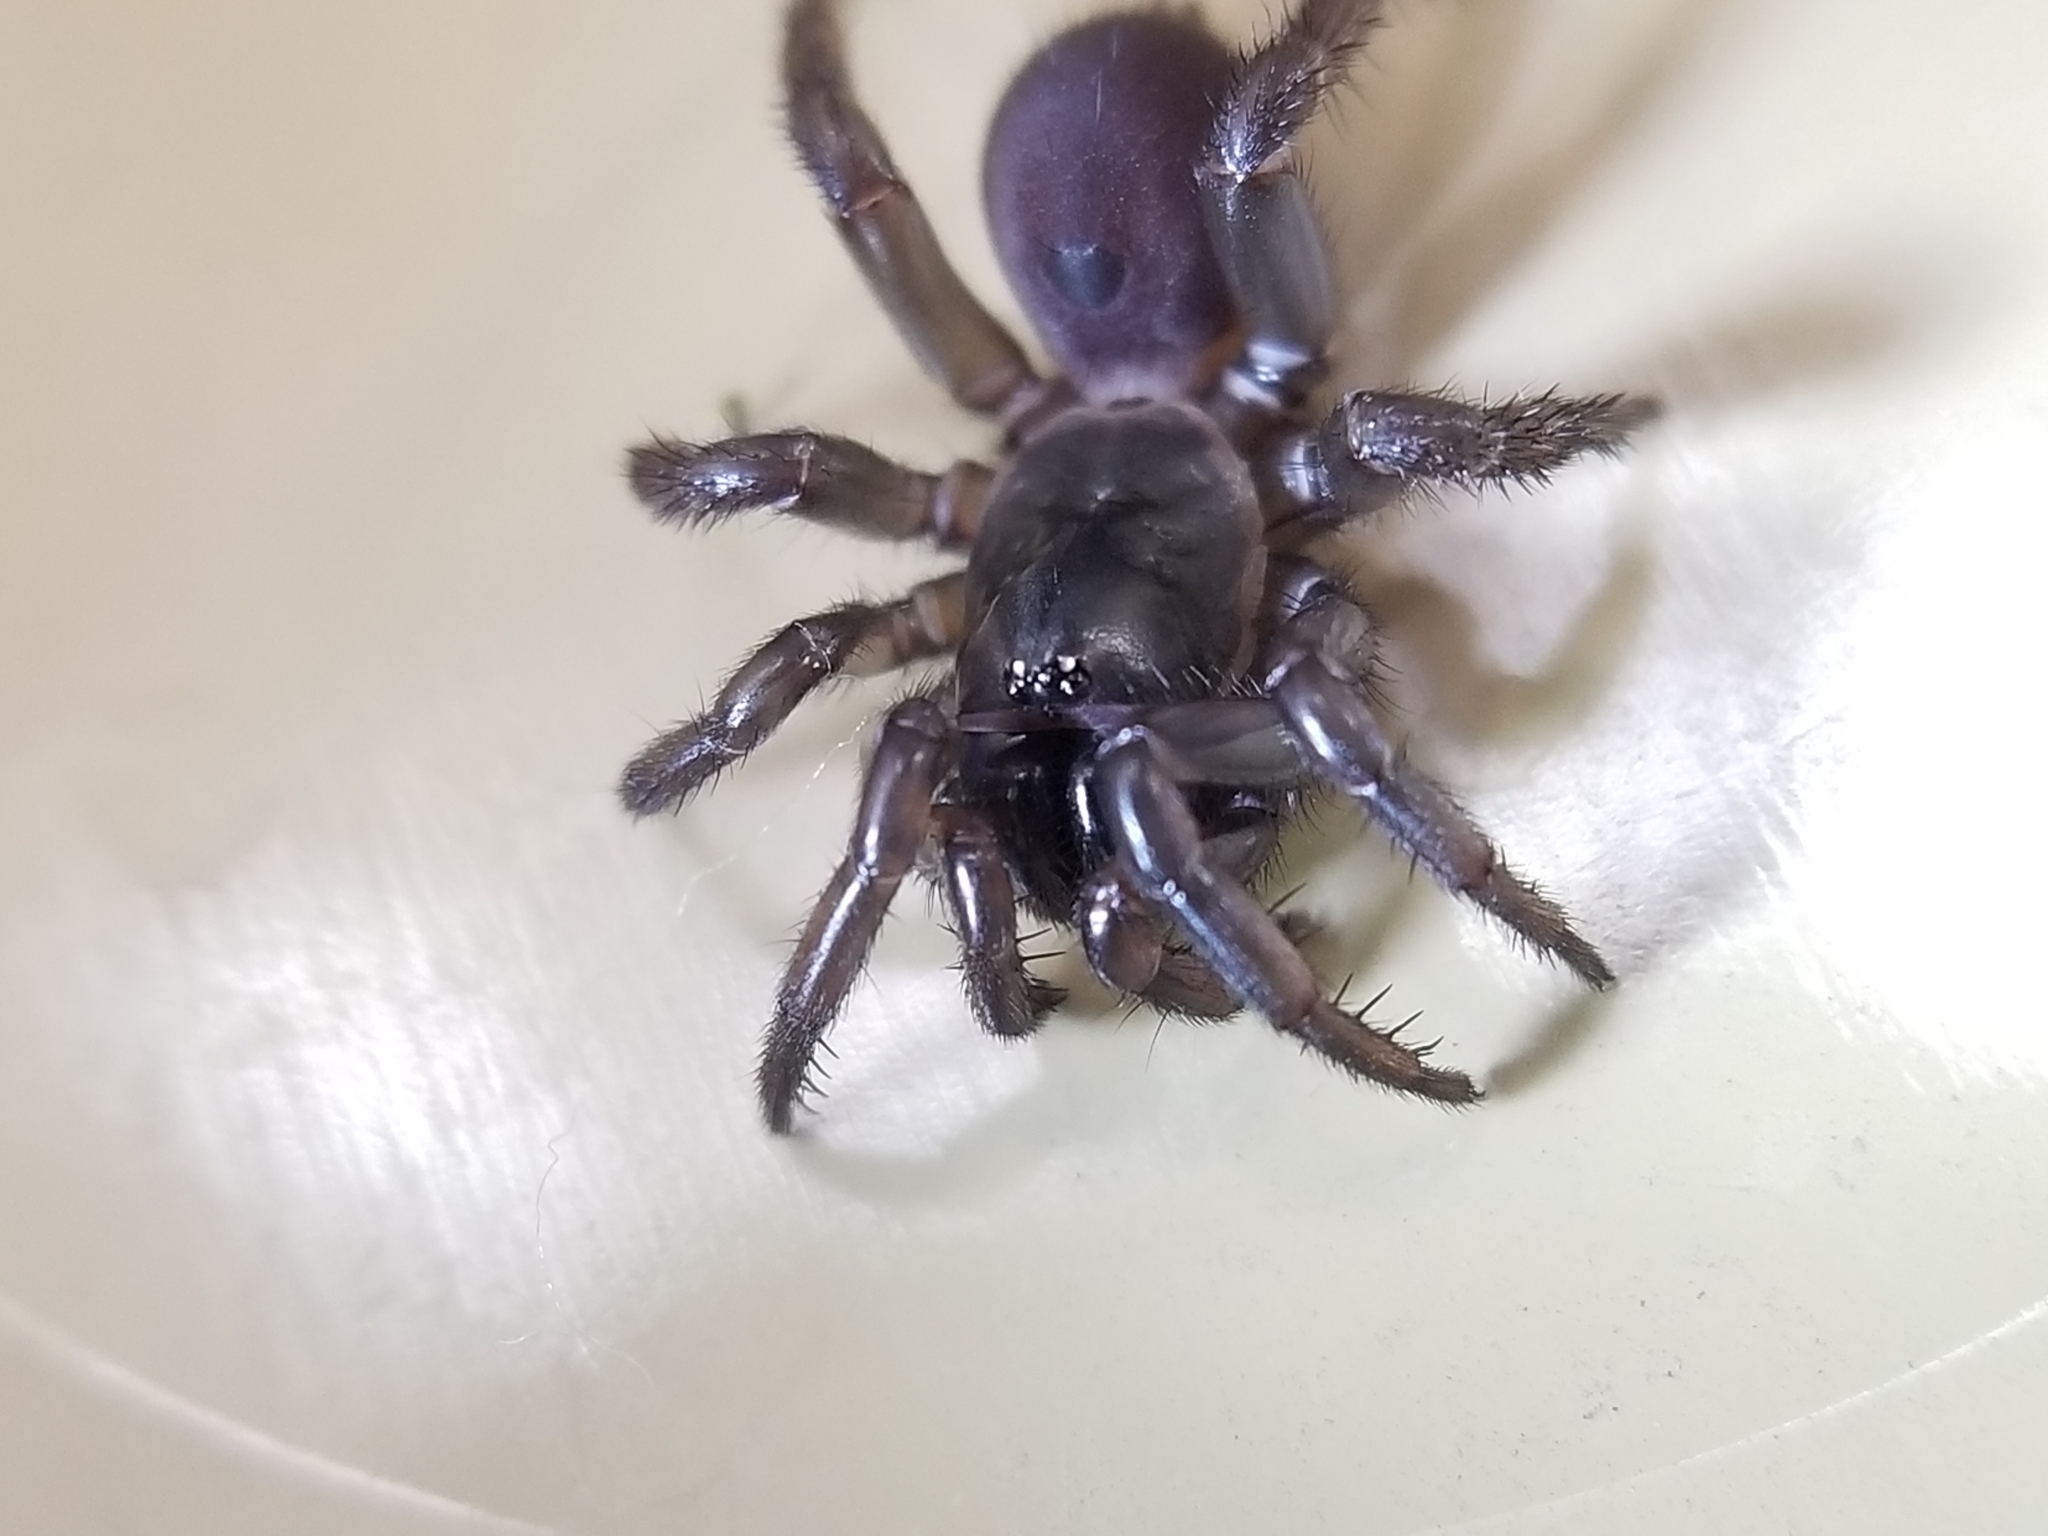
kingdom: Animalia
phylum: Arthropoda
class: Arachnida
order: Araneae
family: Antrodiaetidae
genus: Antrodiaetus
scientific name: Antrodiaetus pacificus
